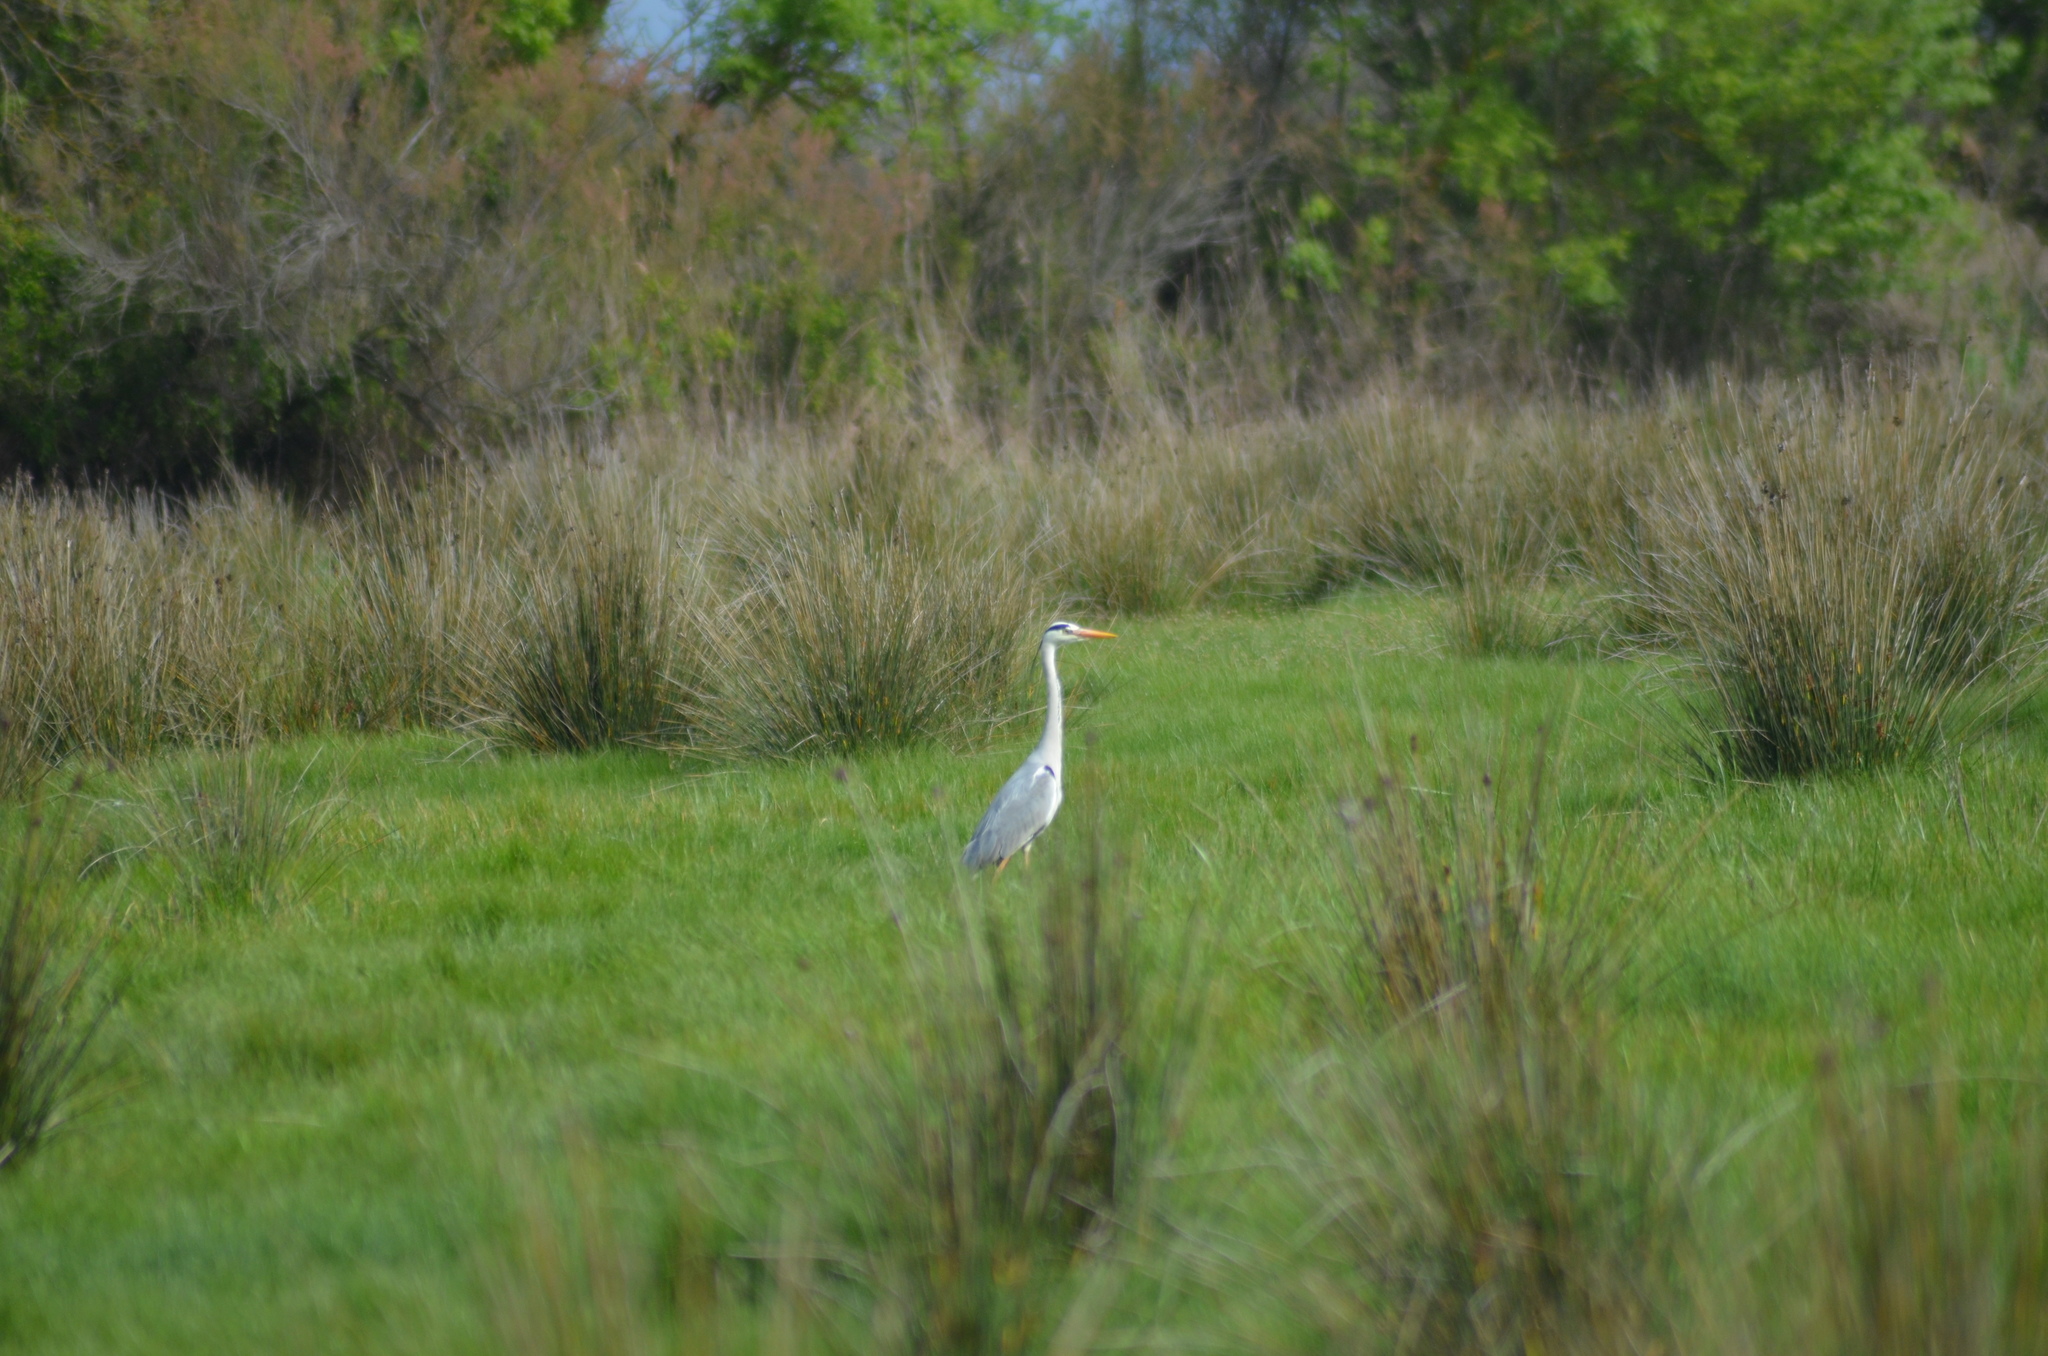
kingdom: Animalia
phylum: Chordata
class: Aves
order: Pelecaniformes
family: Ardeidae
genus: Ardea
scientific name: Ardea cinerea
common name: Grey heron
